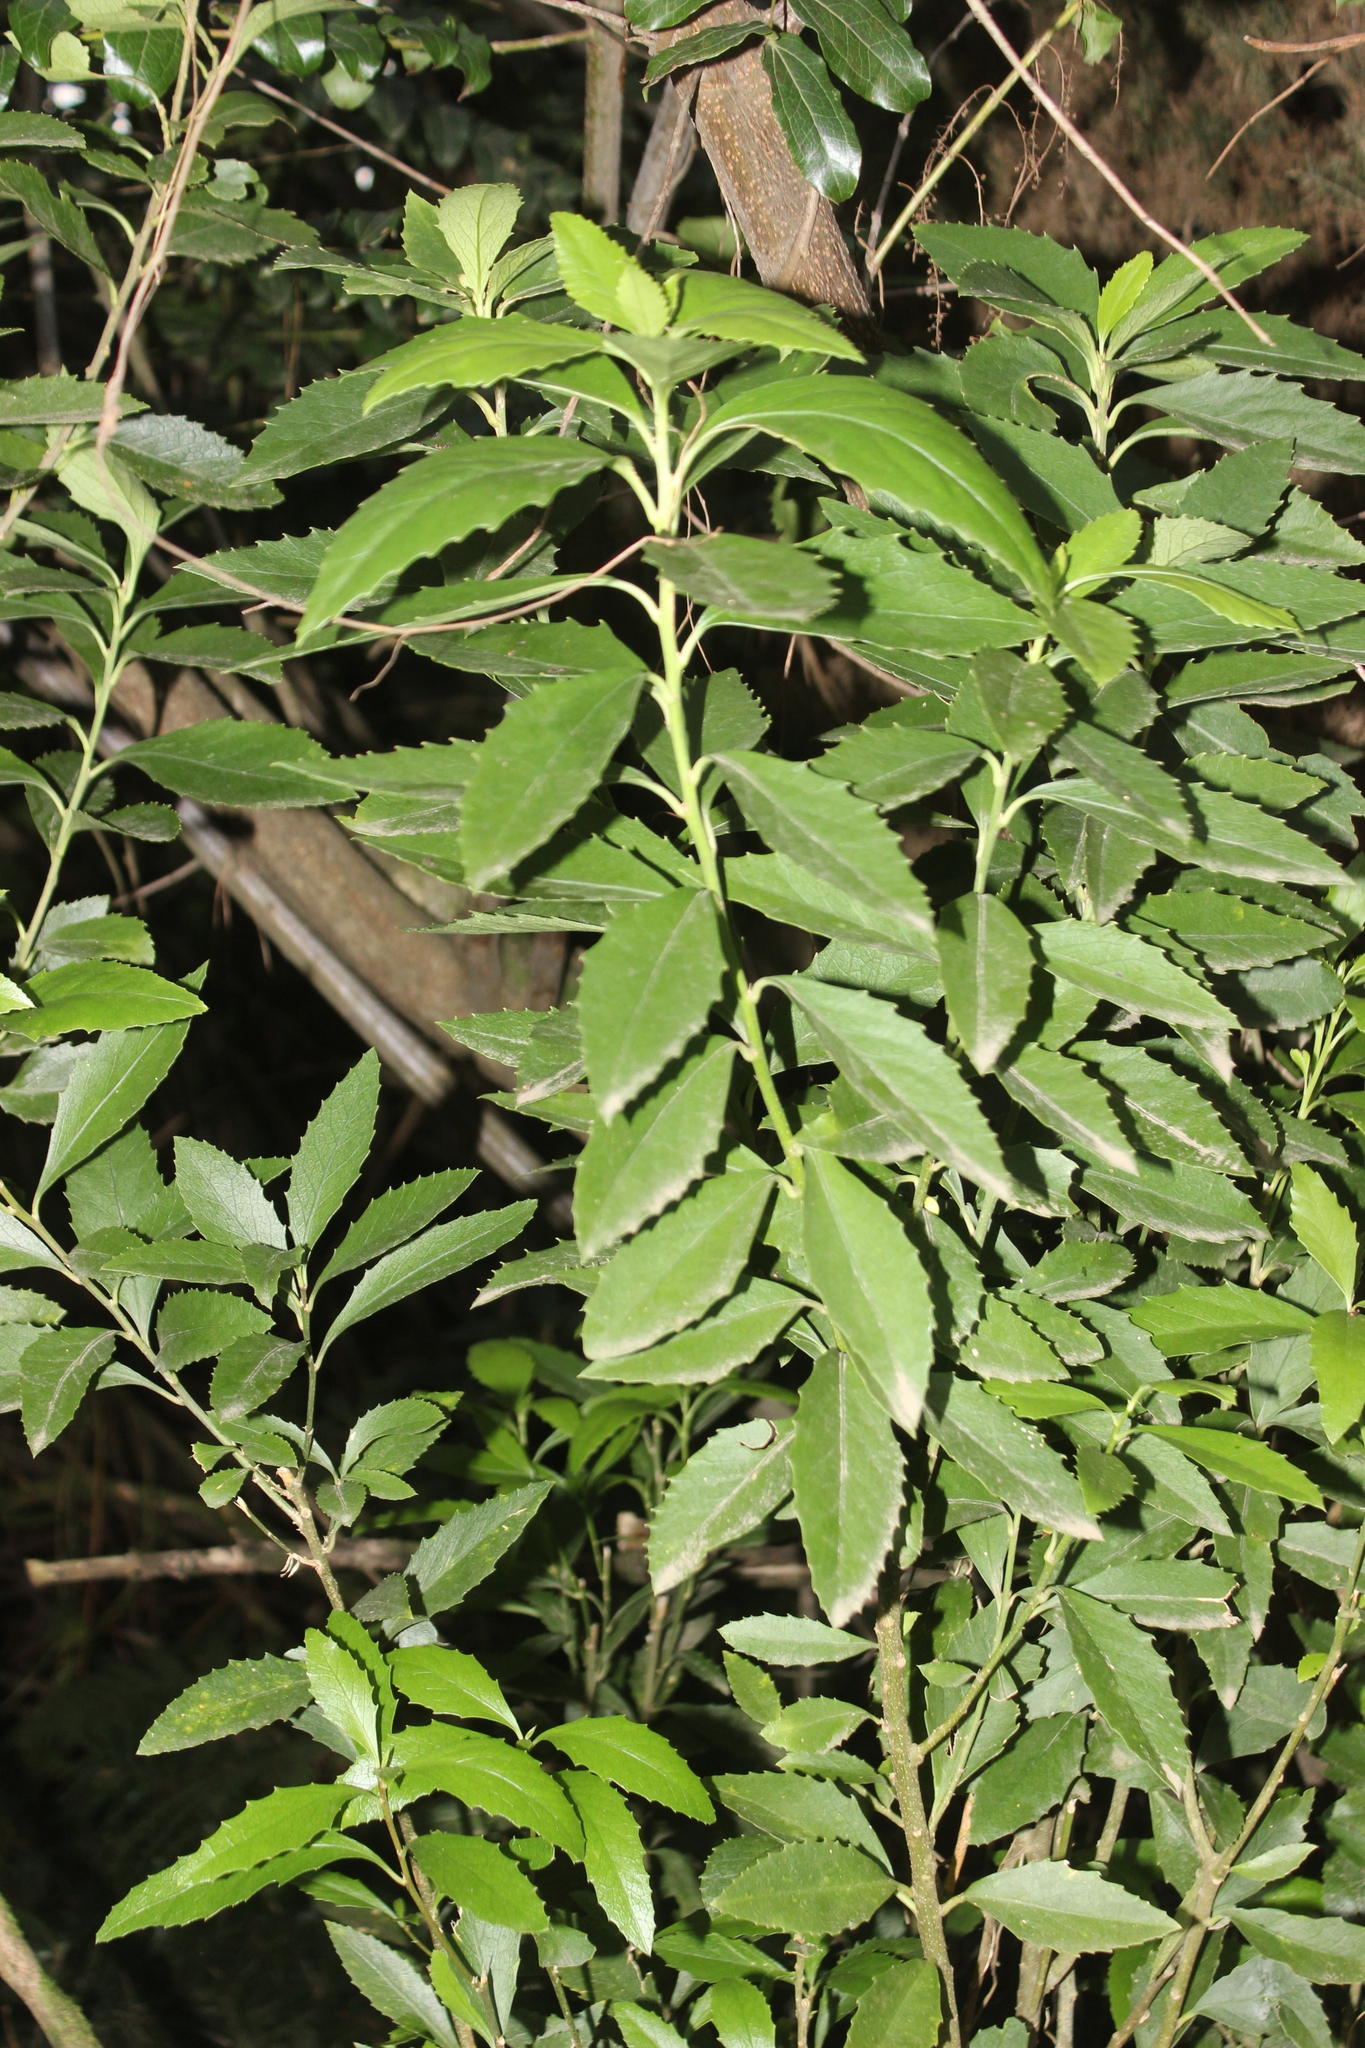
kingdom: Plantae
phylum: Tracheophyta
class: Magnoliopsida
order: Malpighiales
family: Violaceae
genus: Melicytus
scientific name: Melicytus chathamicus
